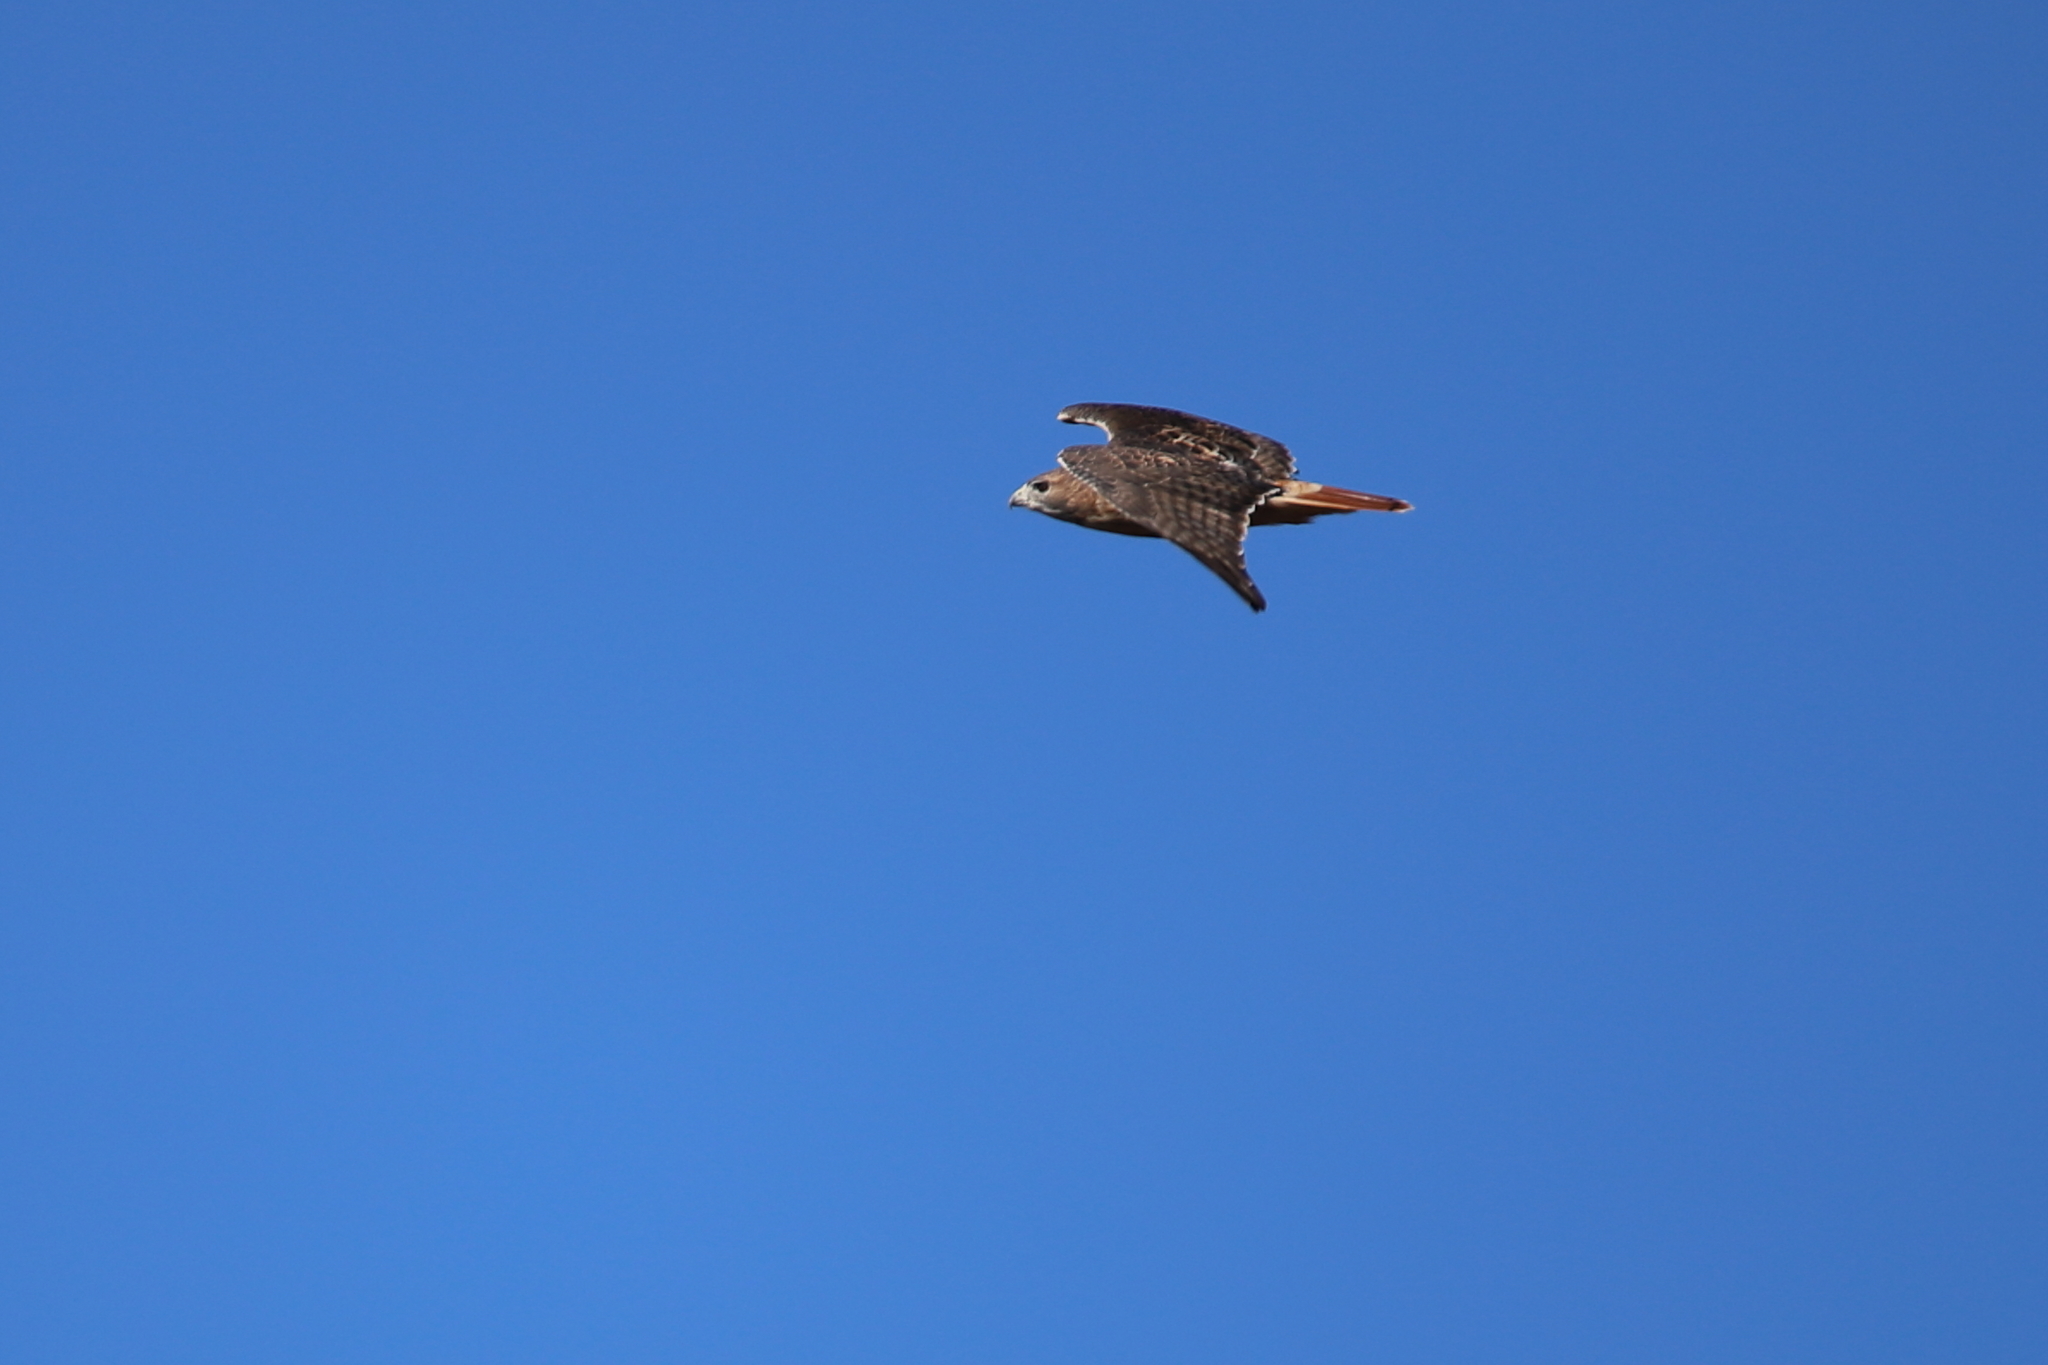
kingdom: Animalia
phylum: Chordata
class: Aves
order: Accipitriformes
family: Accipitridae
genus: Buteo
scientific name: Buteo jamaicensis
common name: Red-tailed hawk
